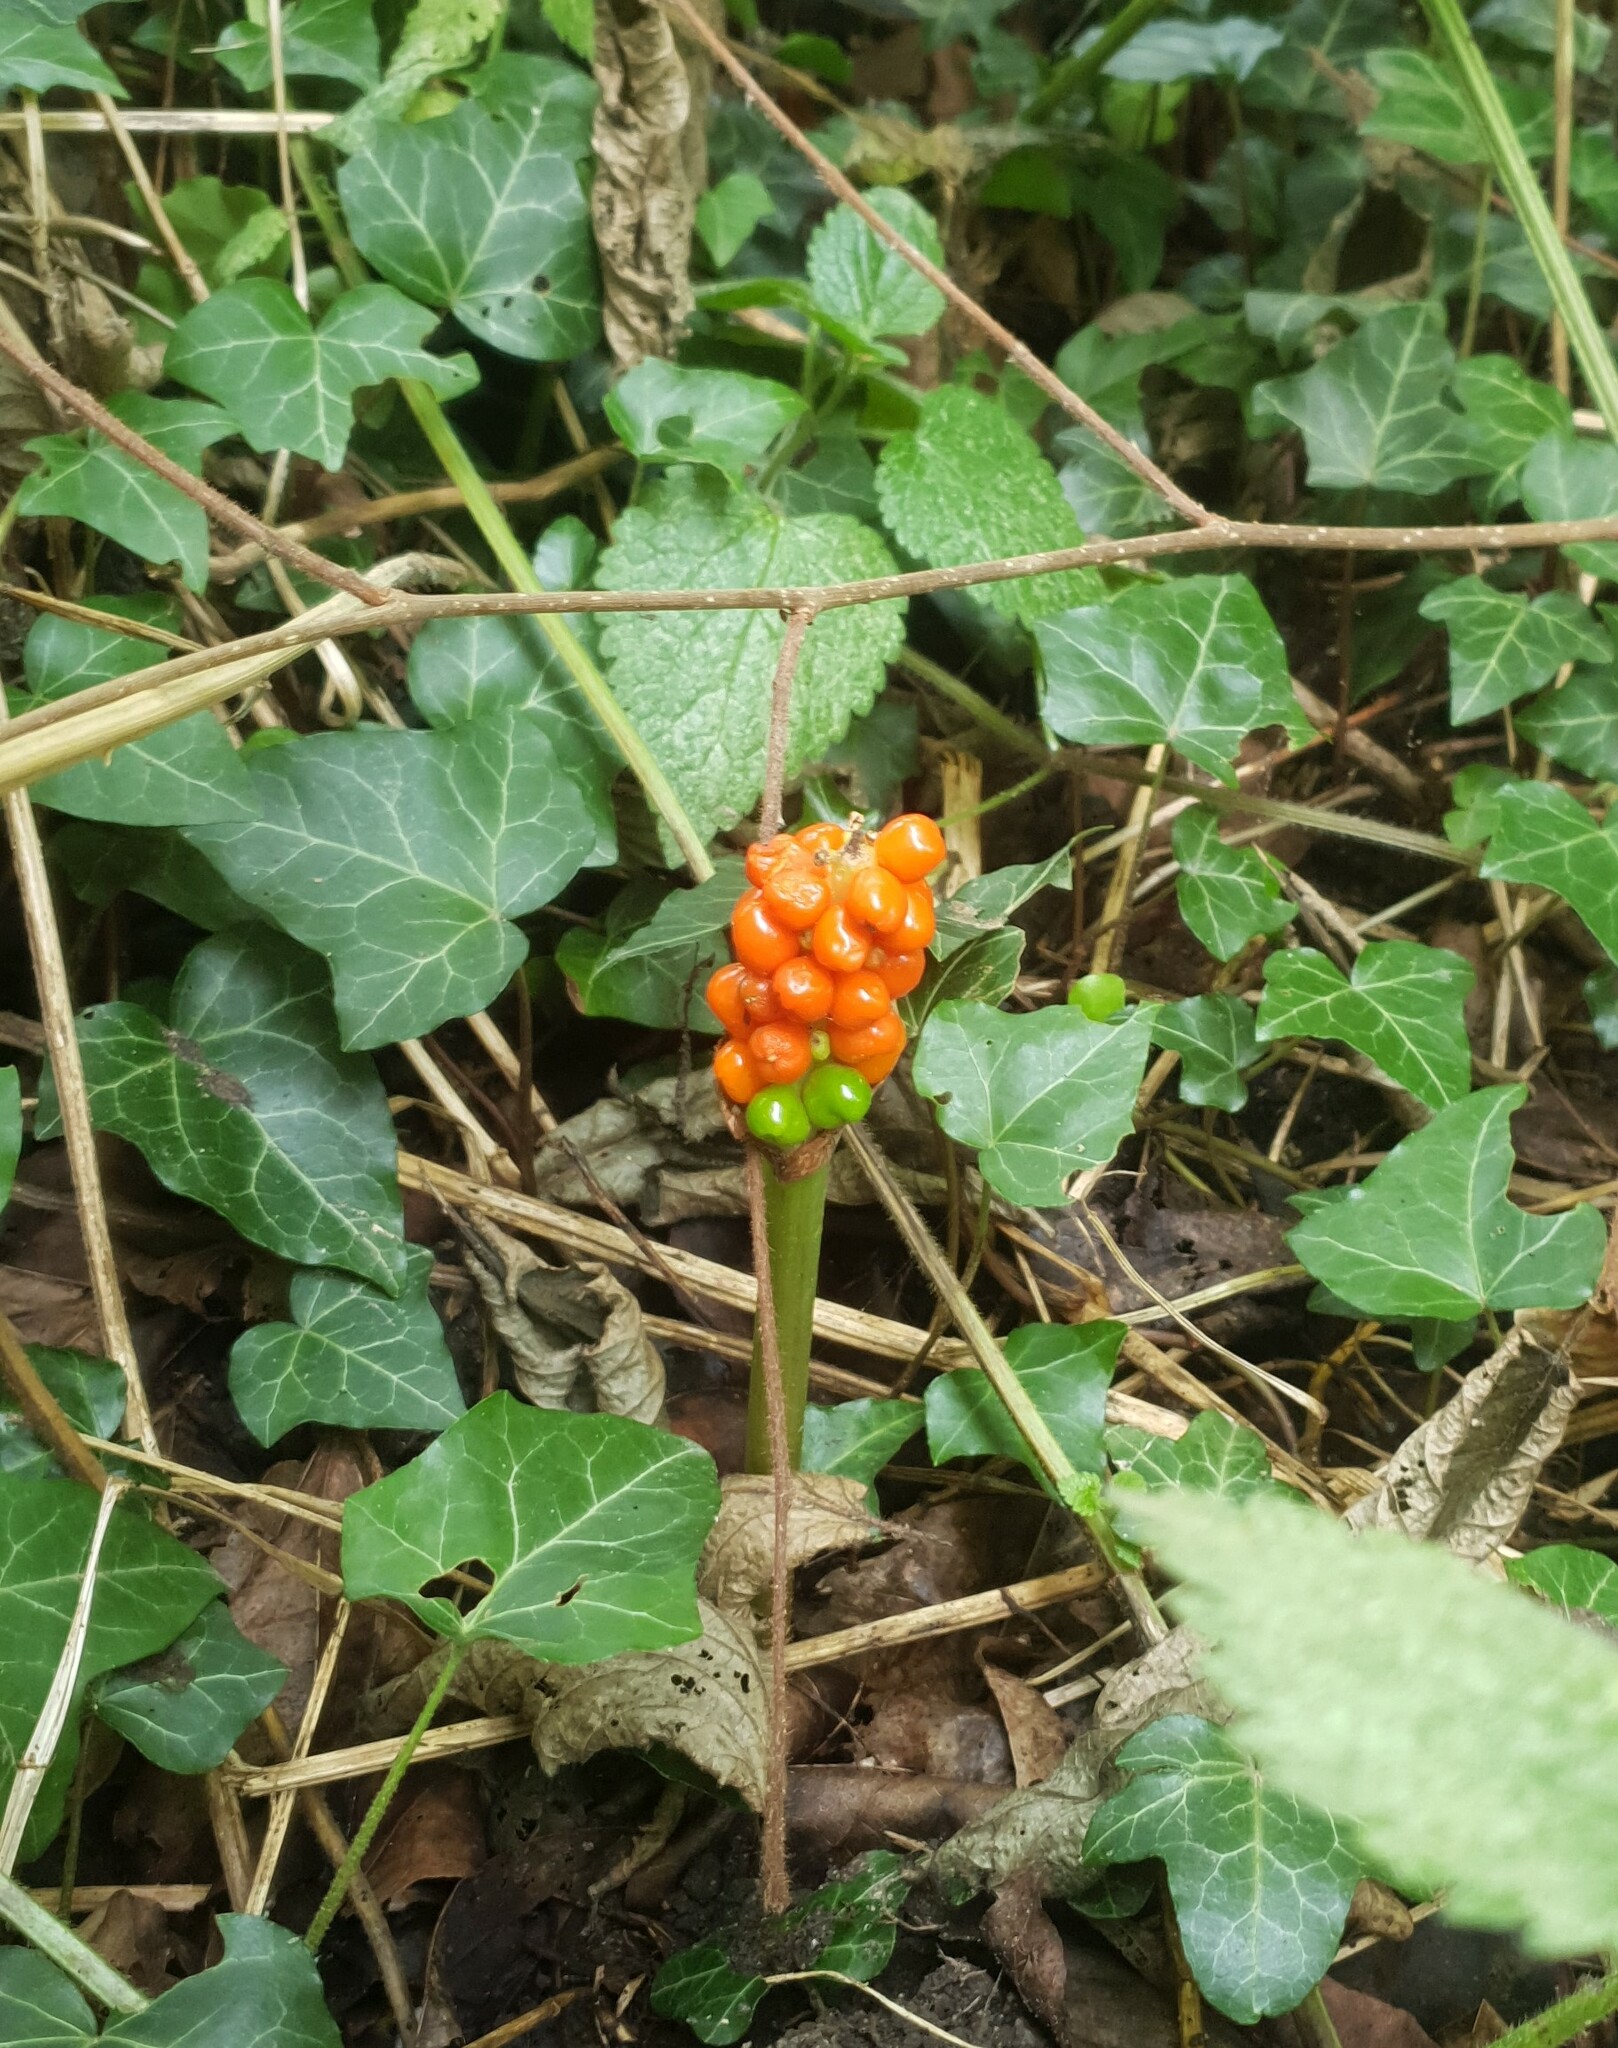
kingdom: Plantae
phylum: Tracheophyta
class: Liliopsida
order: Alismatales
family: Araceae
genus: Arum
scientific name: Arum maculatum
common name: Lords-and-ladies
